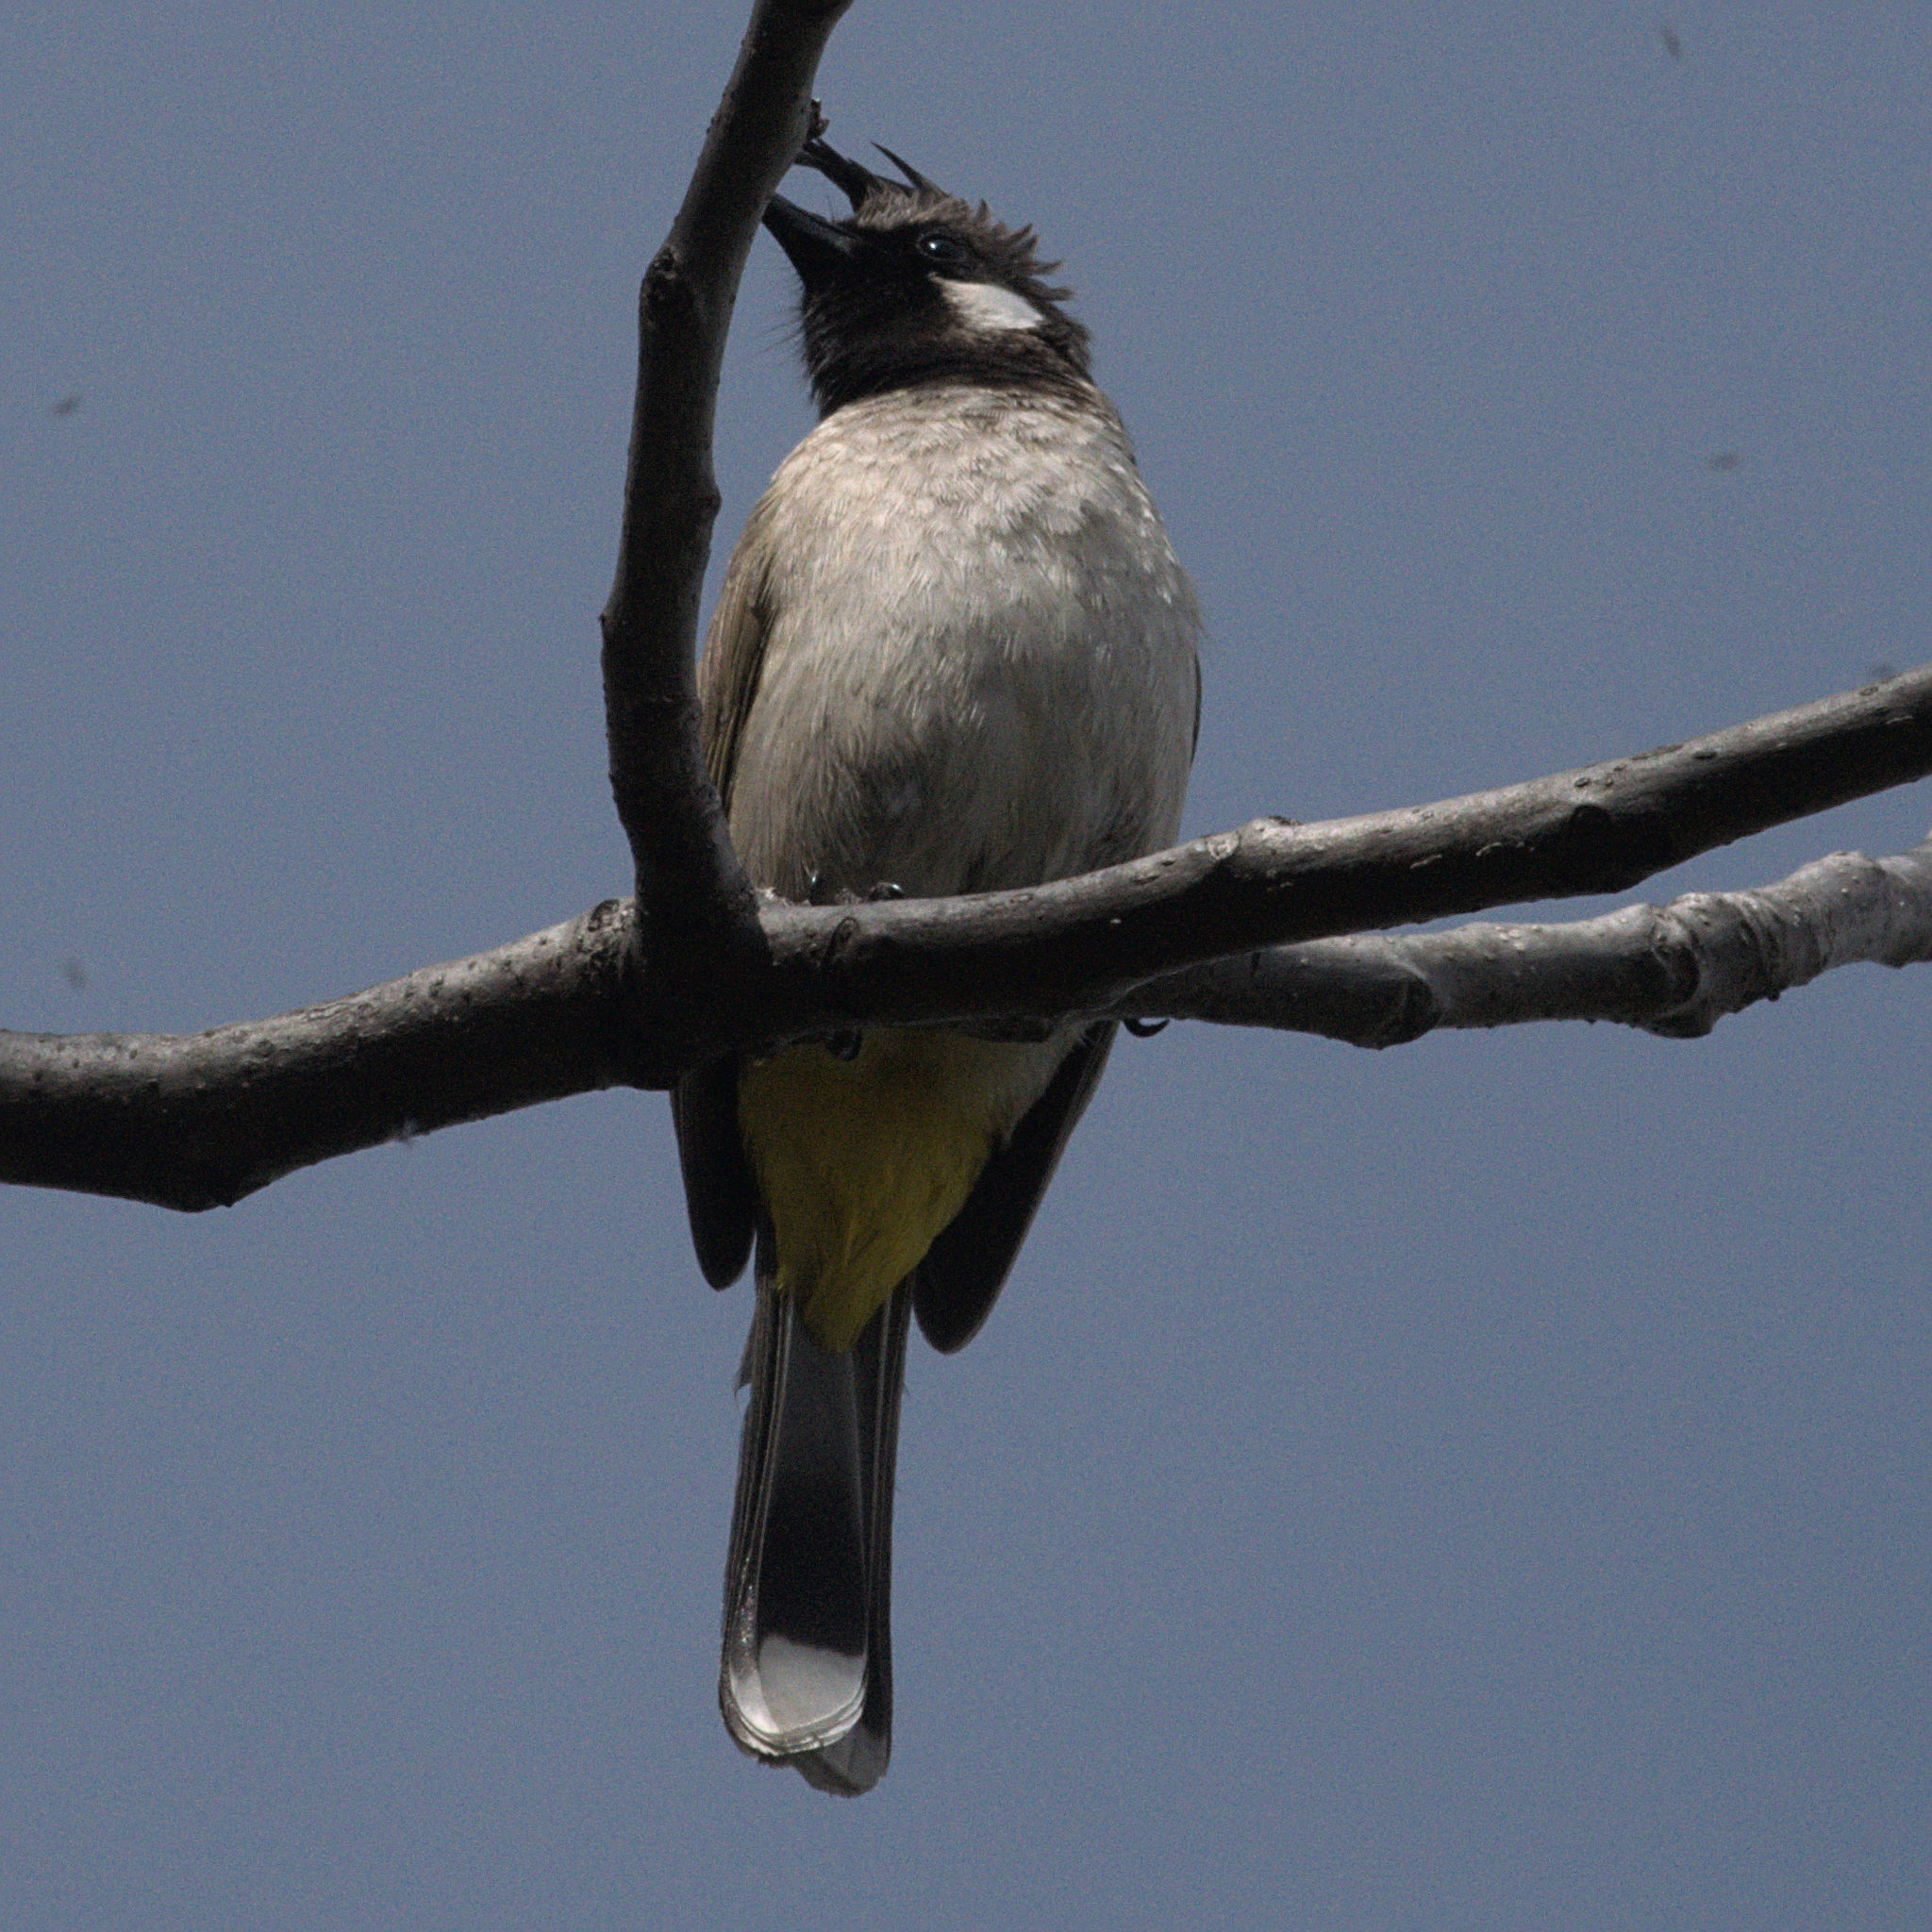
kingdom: Animalia
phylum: Chordata
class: Aves
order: Passeriformes
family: Pycnonotidae
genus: Pycnonotus
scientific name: Pycnonotus leucogenys
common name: Himalayan bulbul
